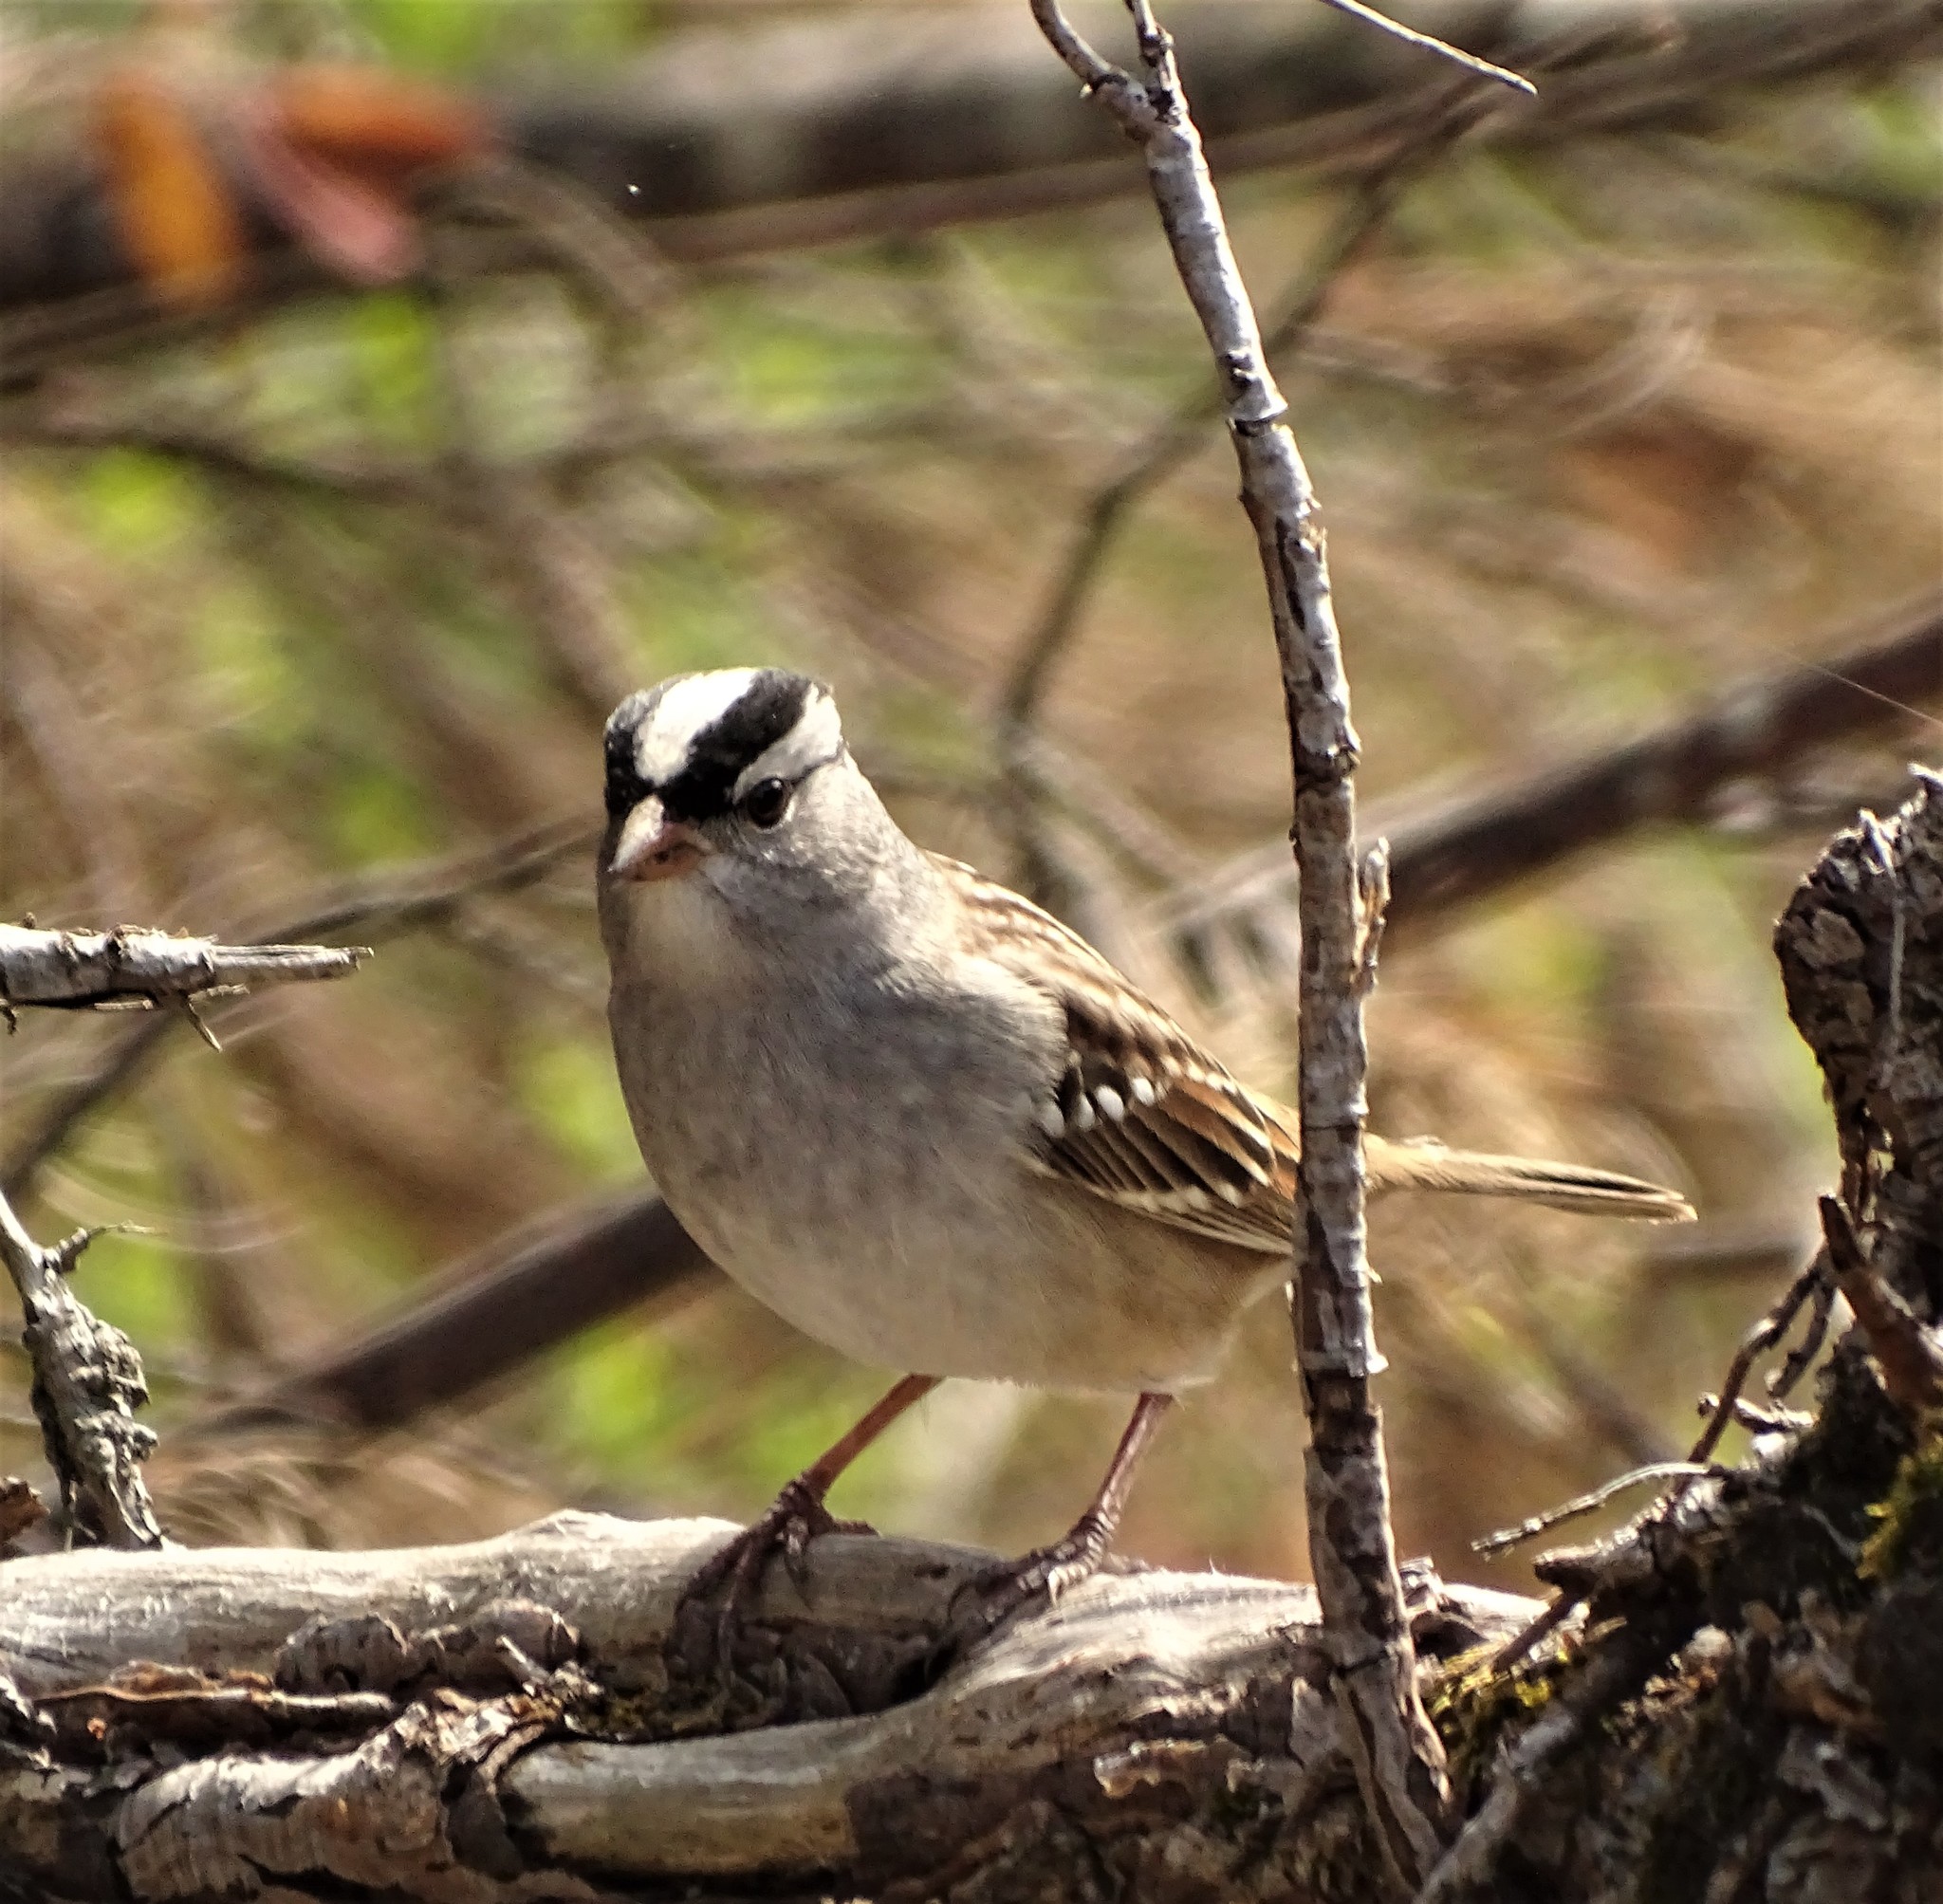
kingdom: Animalia
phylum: Chordata
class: Aves
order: Passeriformes
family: Passerellidae
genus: Zonotrichia
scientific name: Zonotrichia leucophrys
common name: White-crowned sparrow
